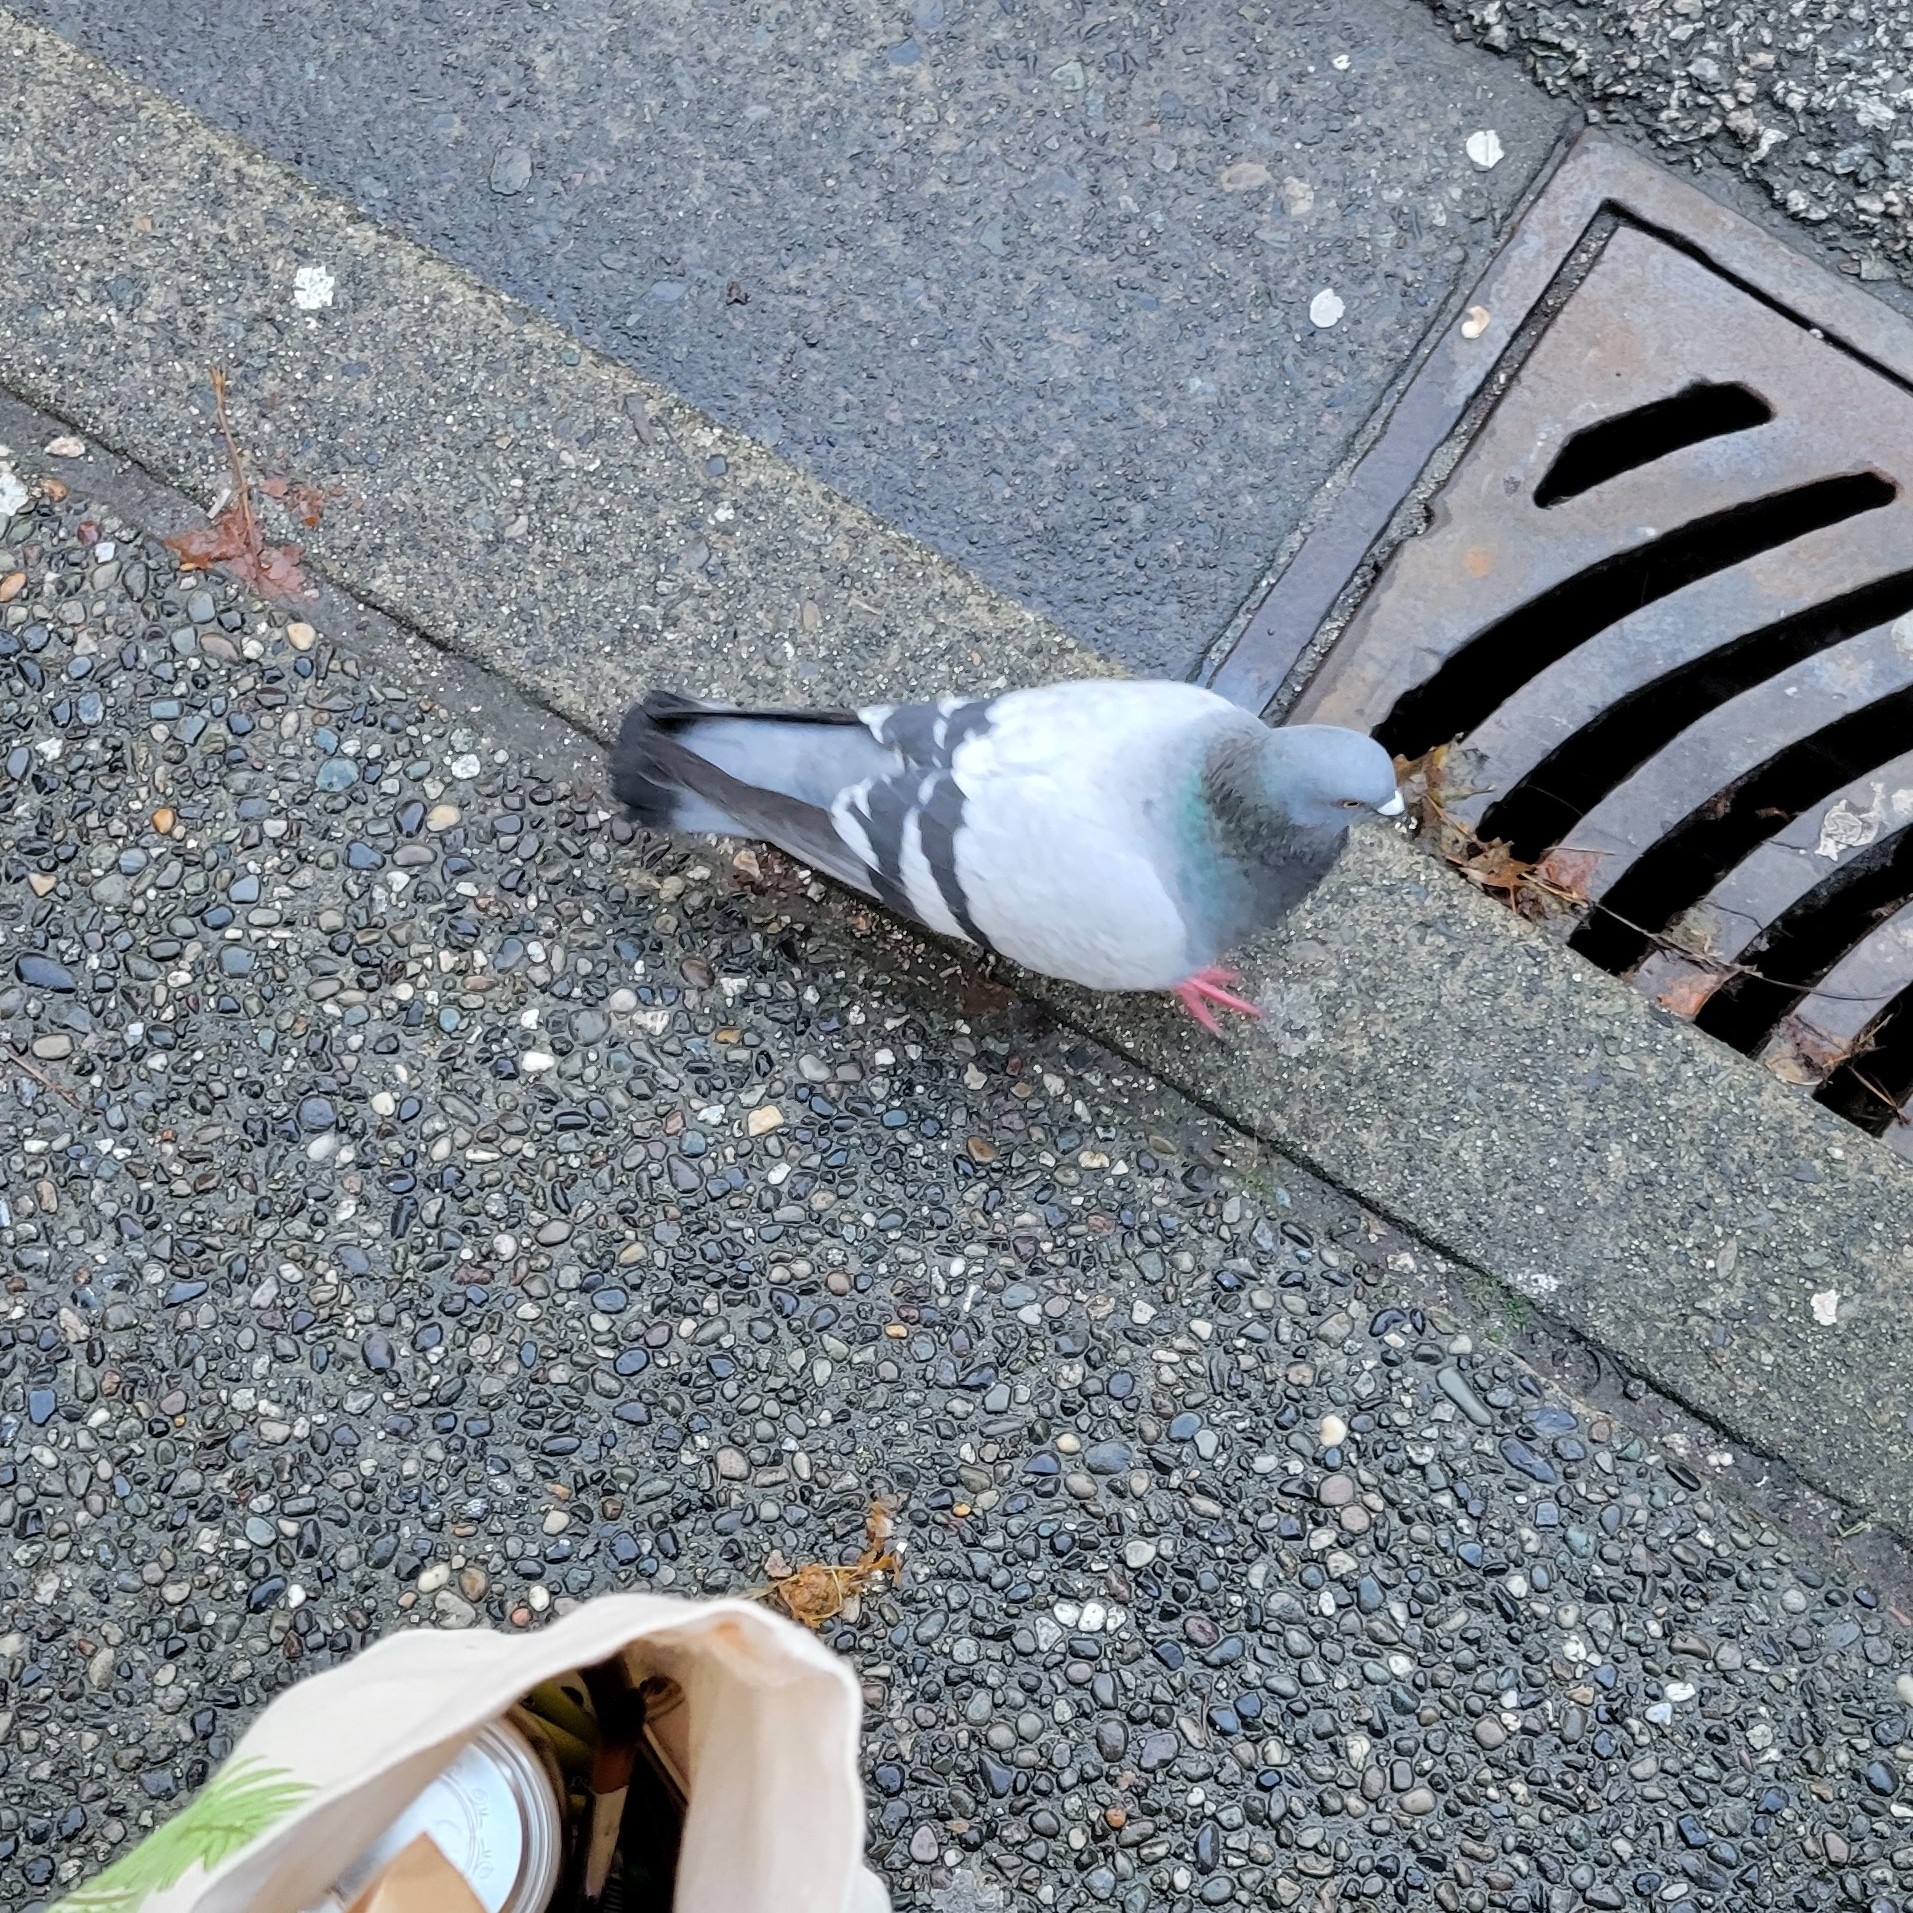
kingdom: Animalia
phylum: Chordata
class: Aves
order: Columbiformes
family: Columbidae
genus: Columba
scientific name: Columba livia
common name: Rock pigeon
